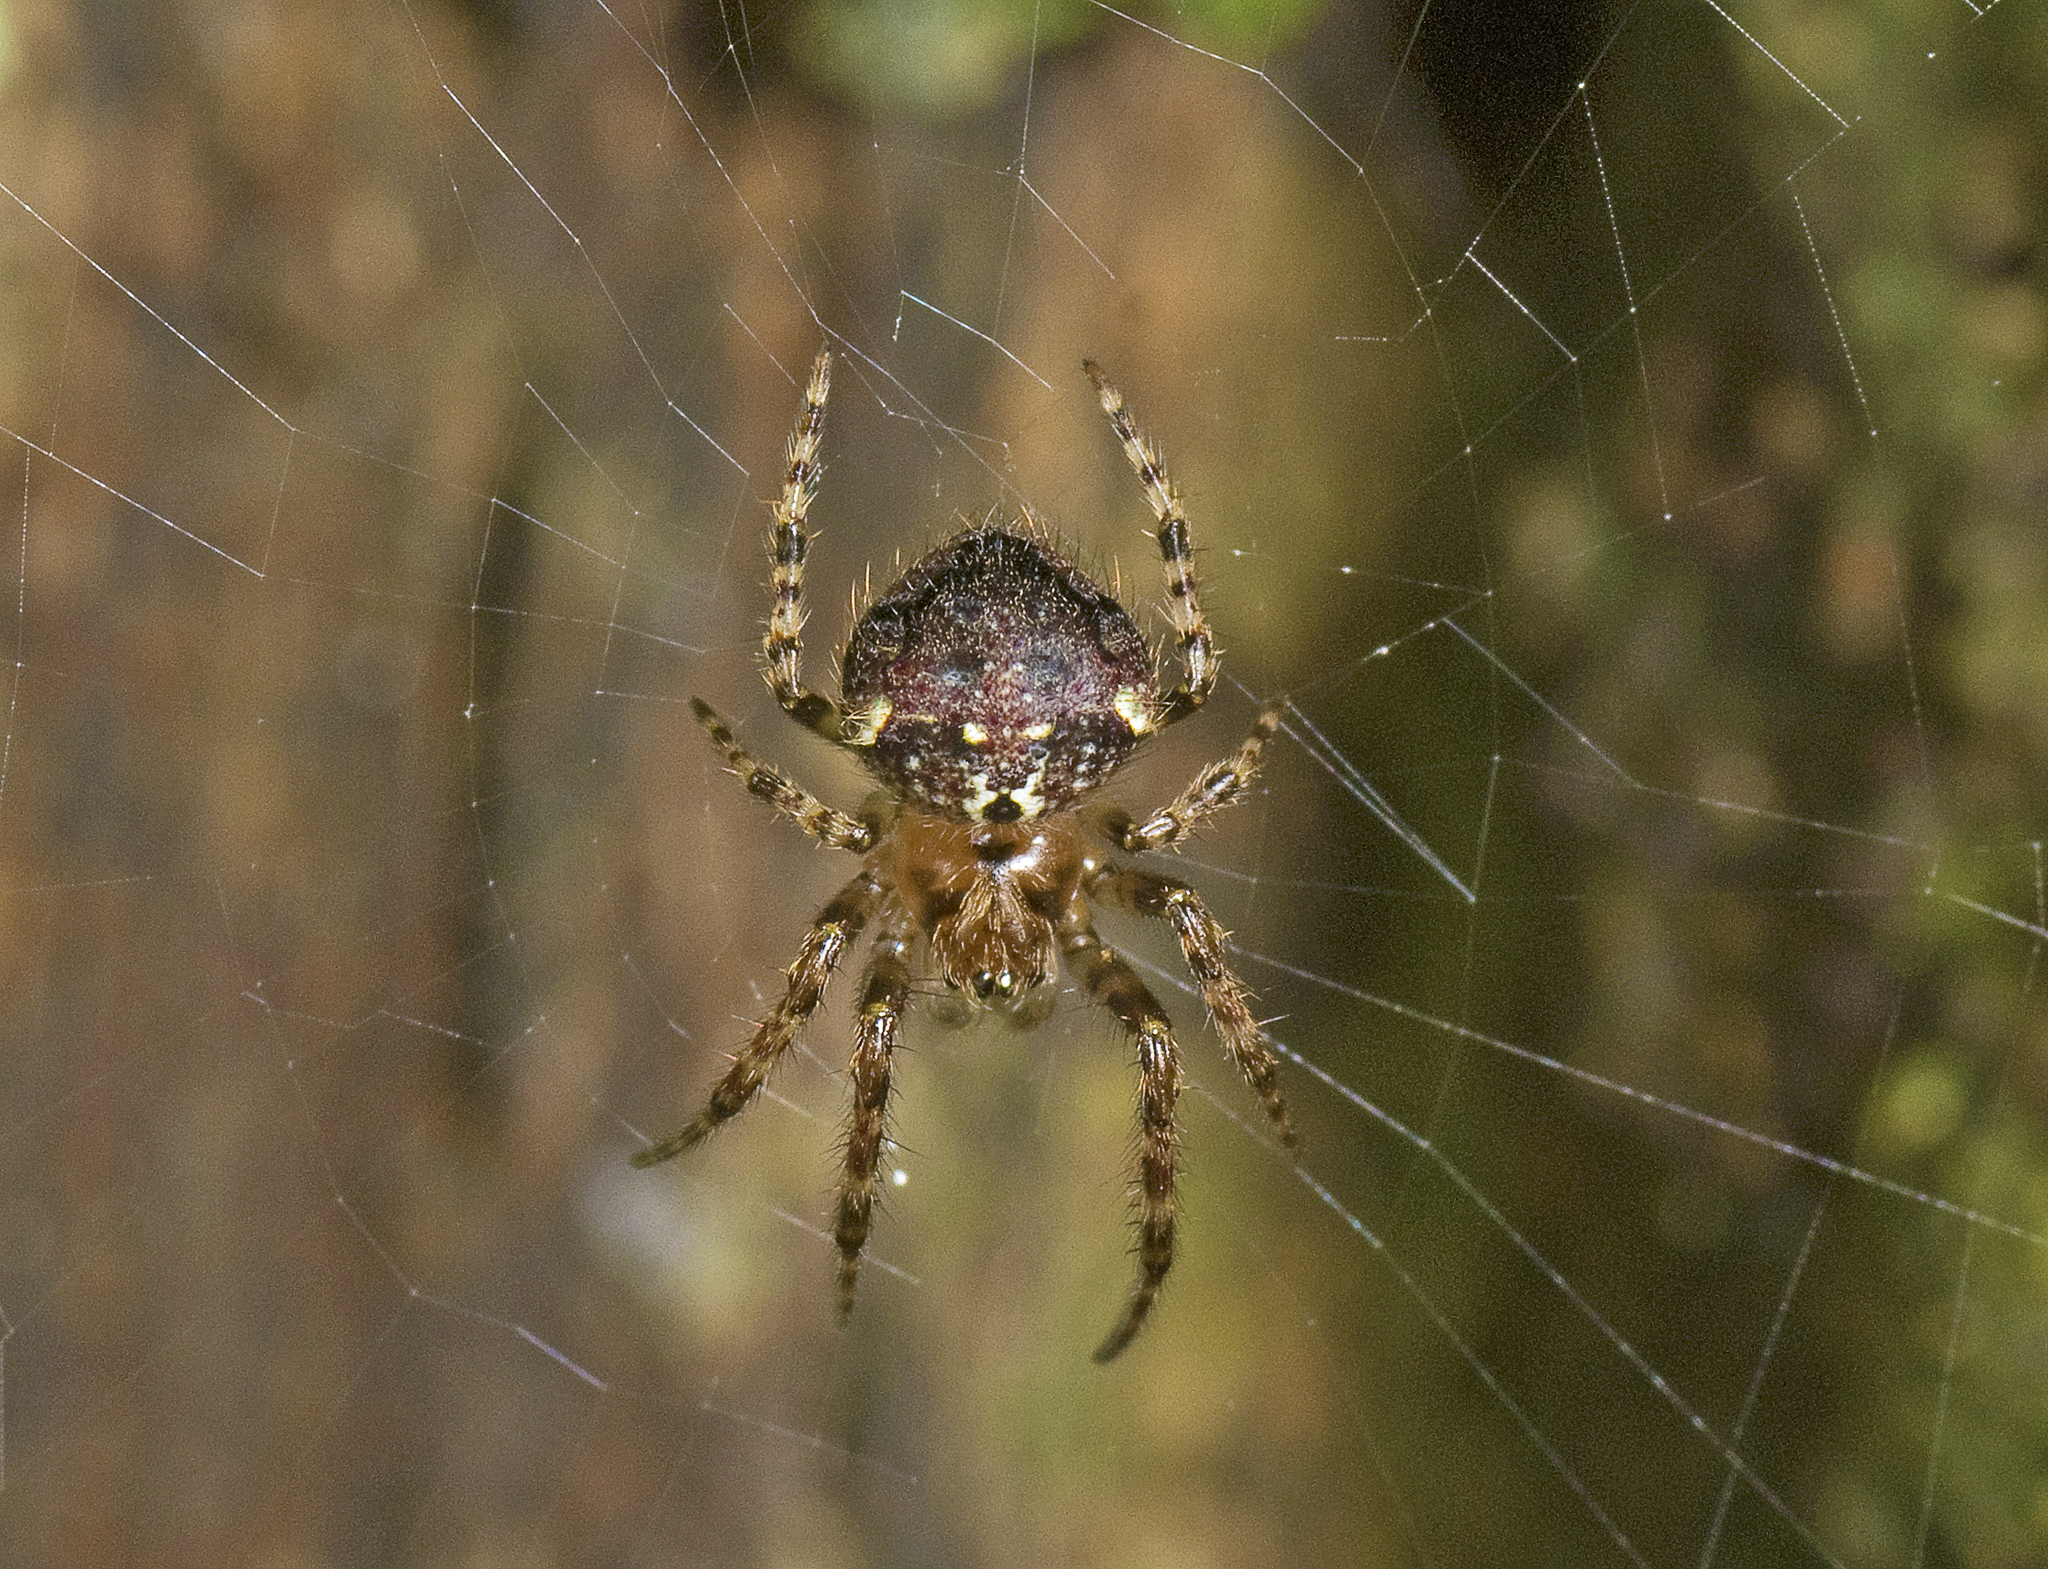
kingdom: Animalia
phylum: Arthropoda
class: Arachnida
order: Araneae
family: Araneidae
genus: Telaprocera
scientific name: Telaprocera maudae
